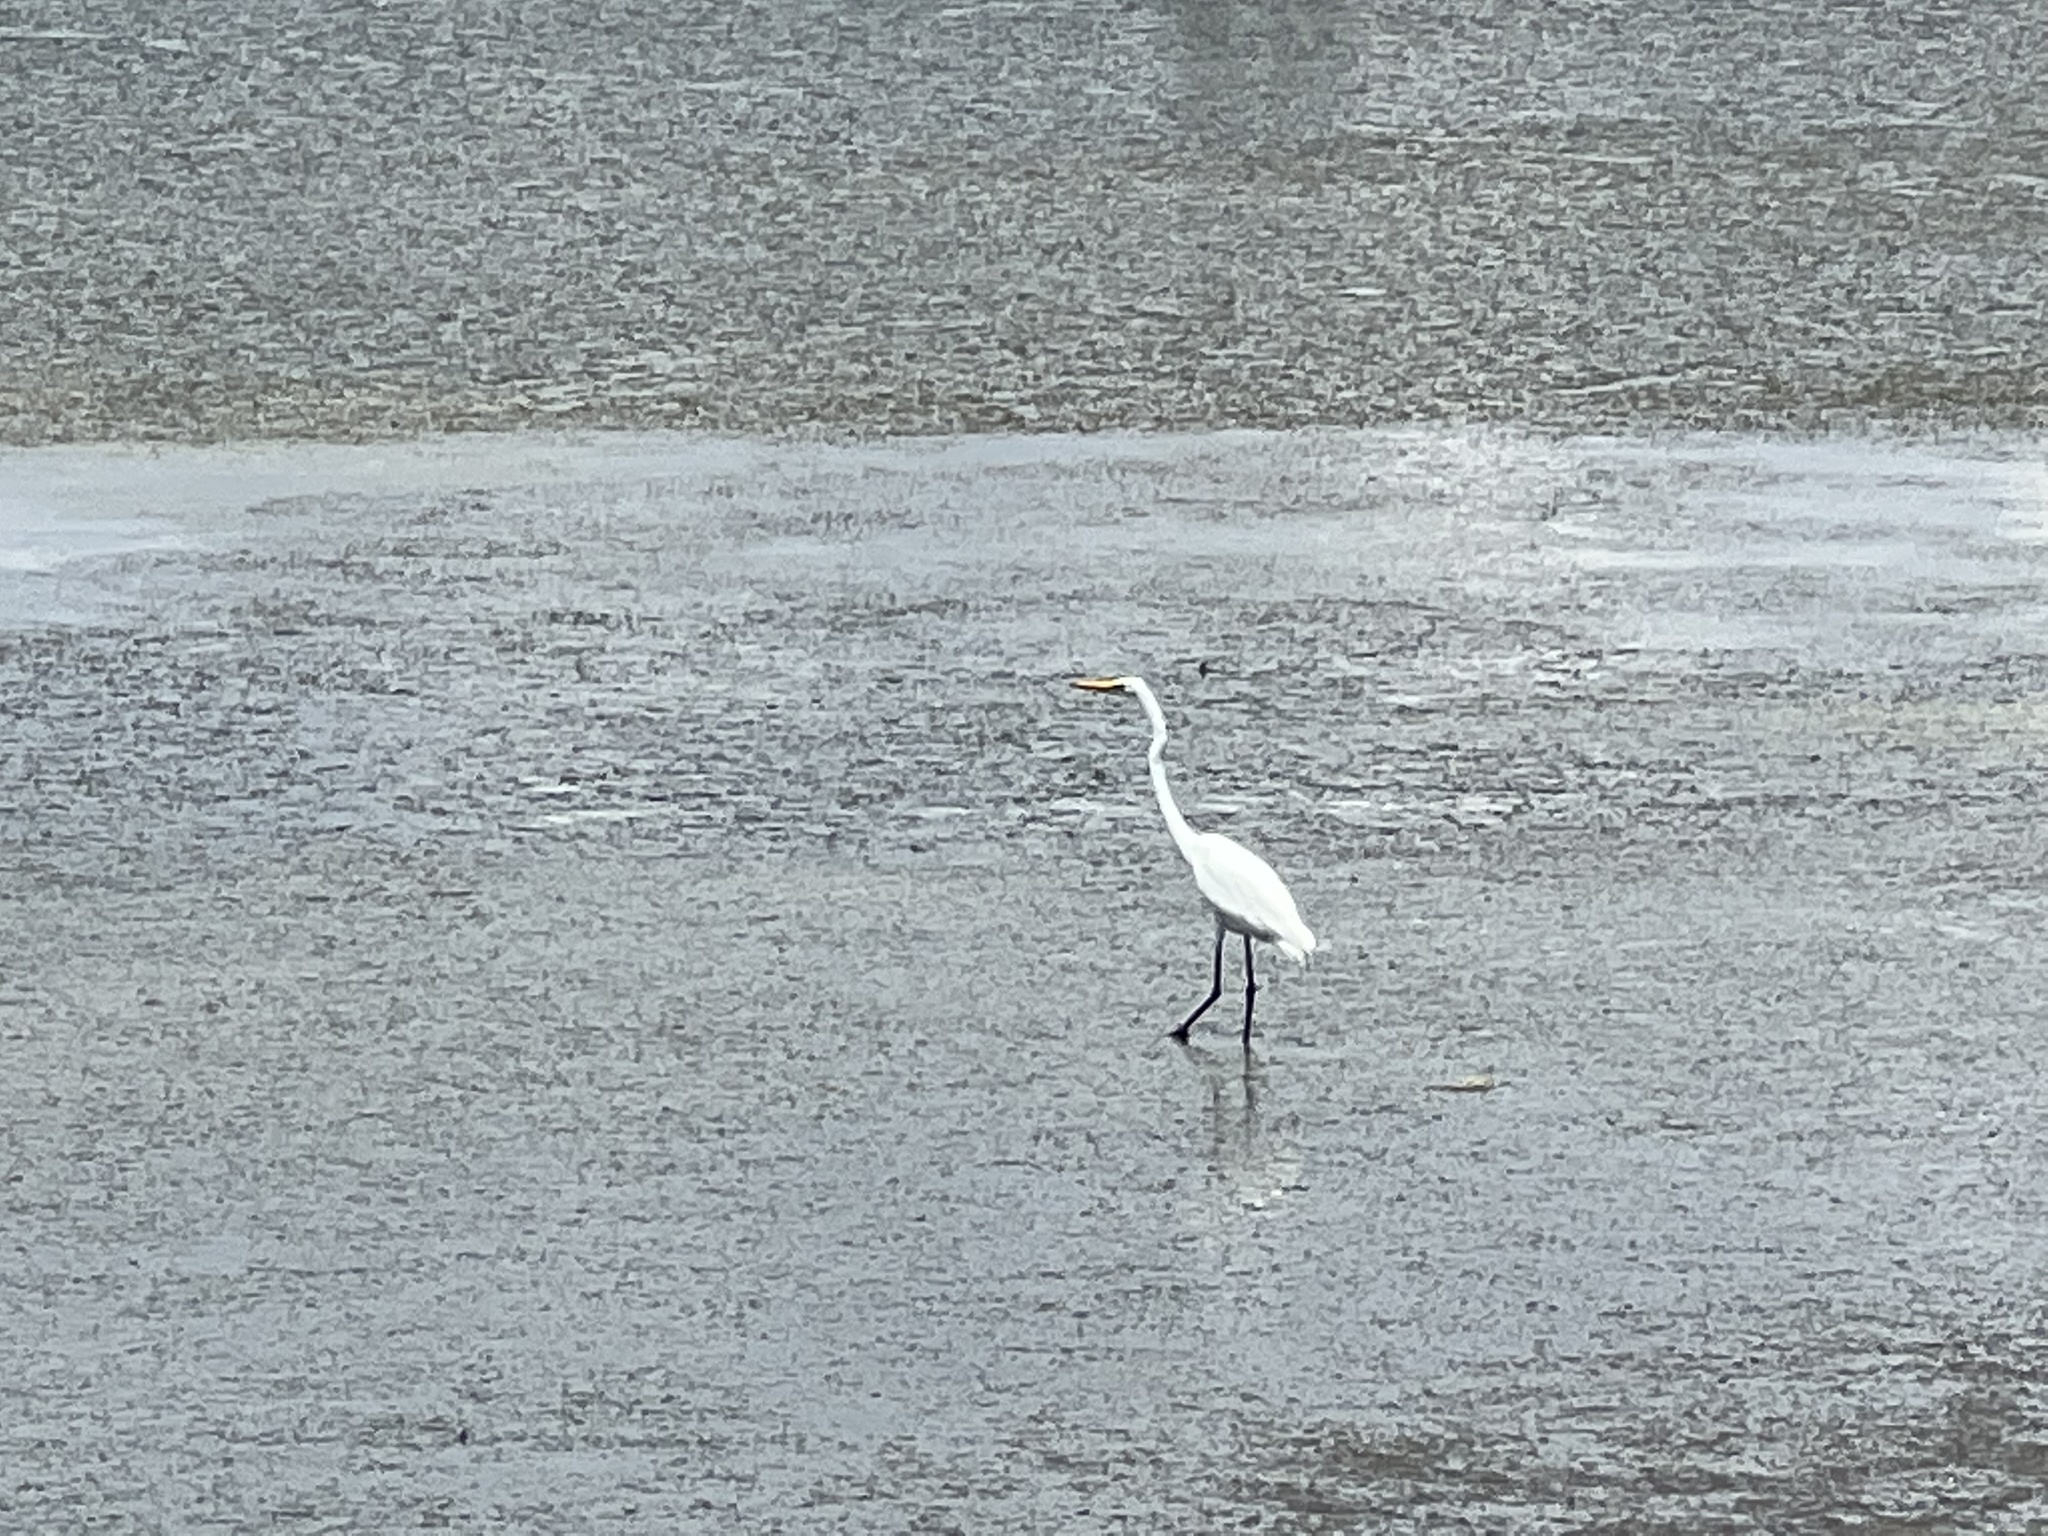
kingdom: Animalia
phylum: Chordata
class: Aves
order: Pelecaniformes
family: Ardeidae
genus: Ardea
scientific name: Ardea alba
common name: Great egret
